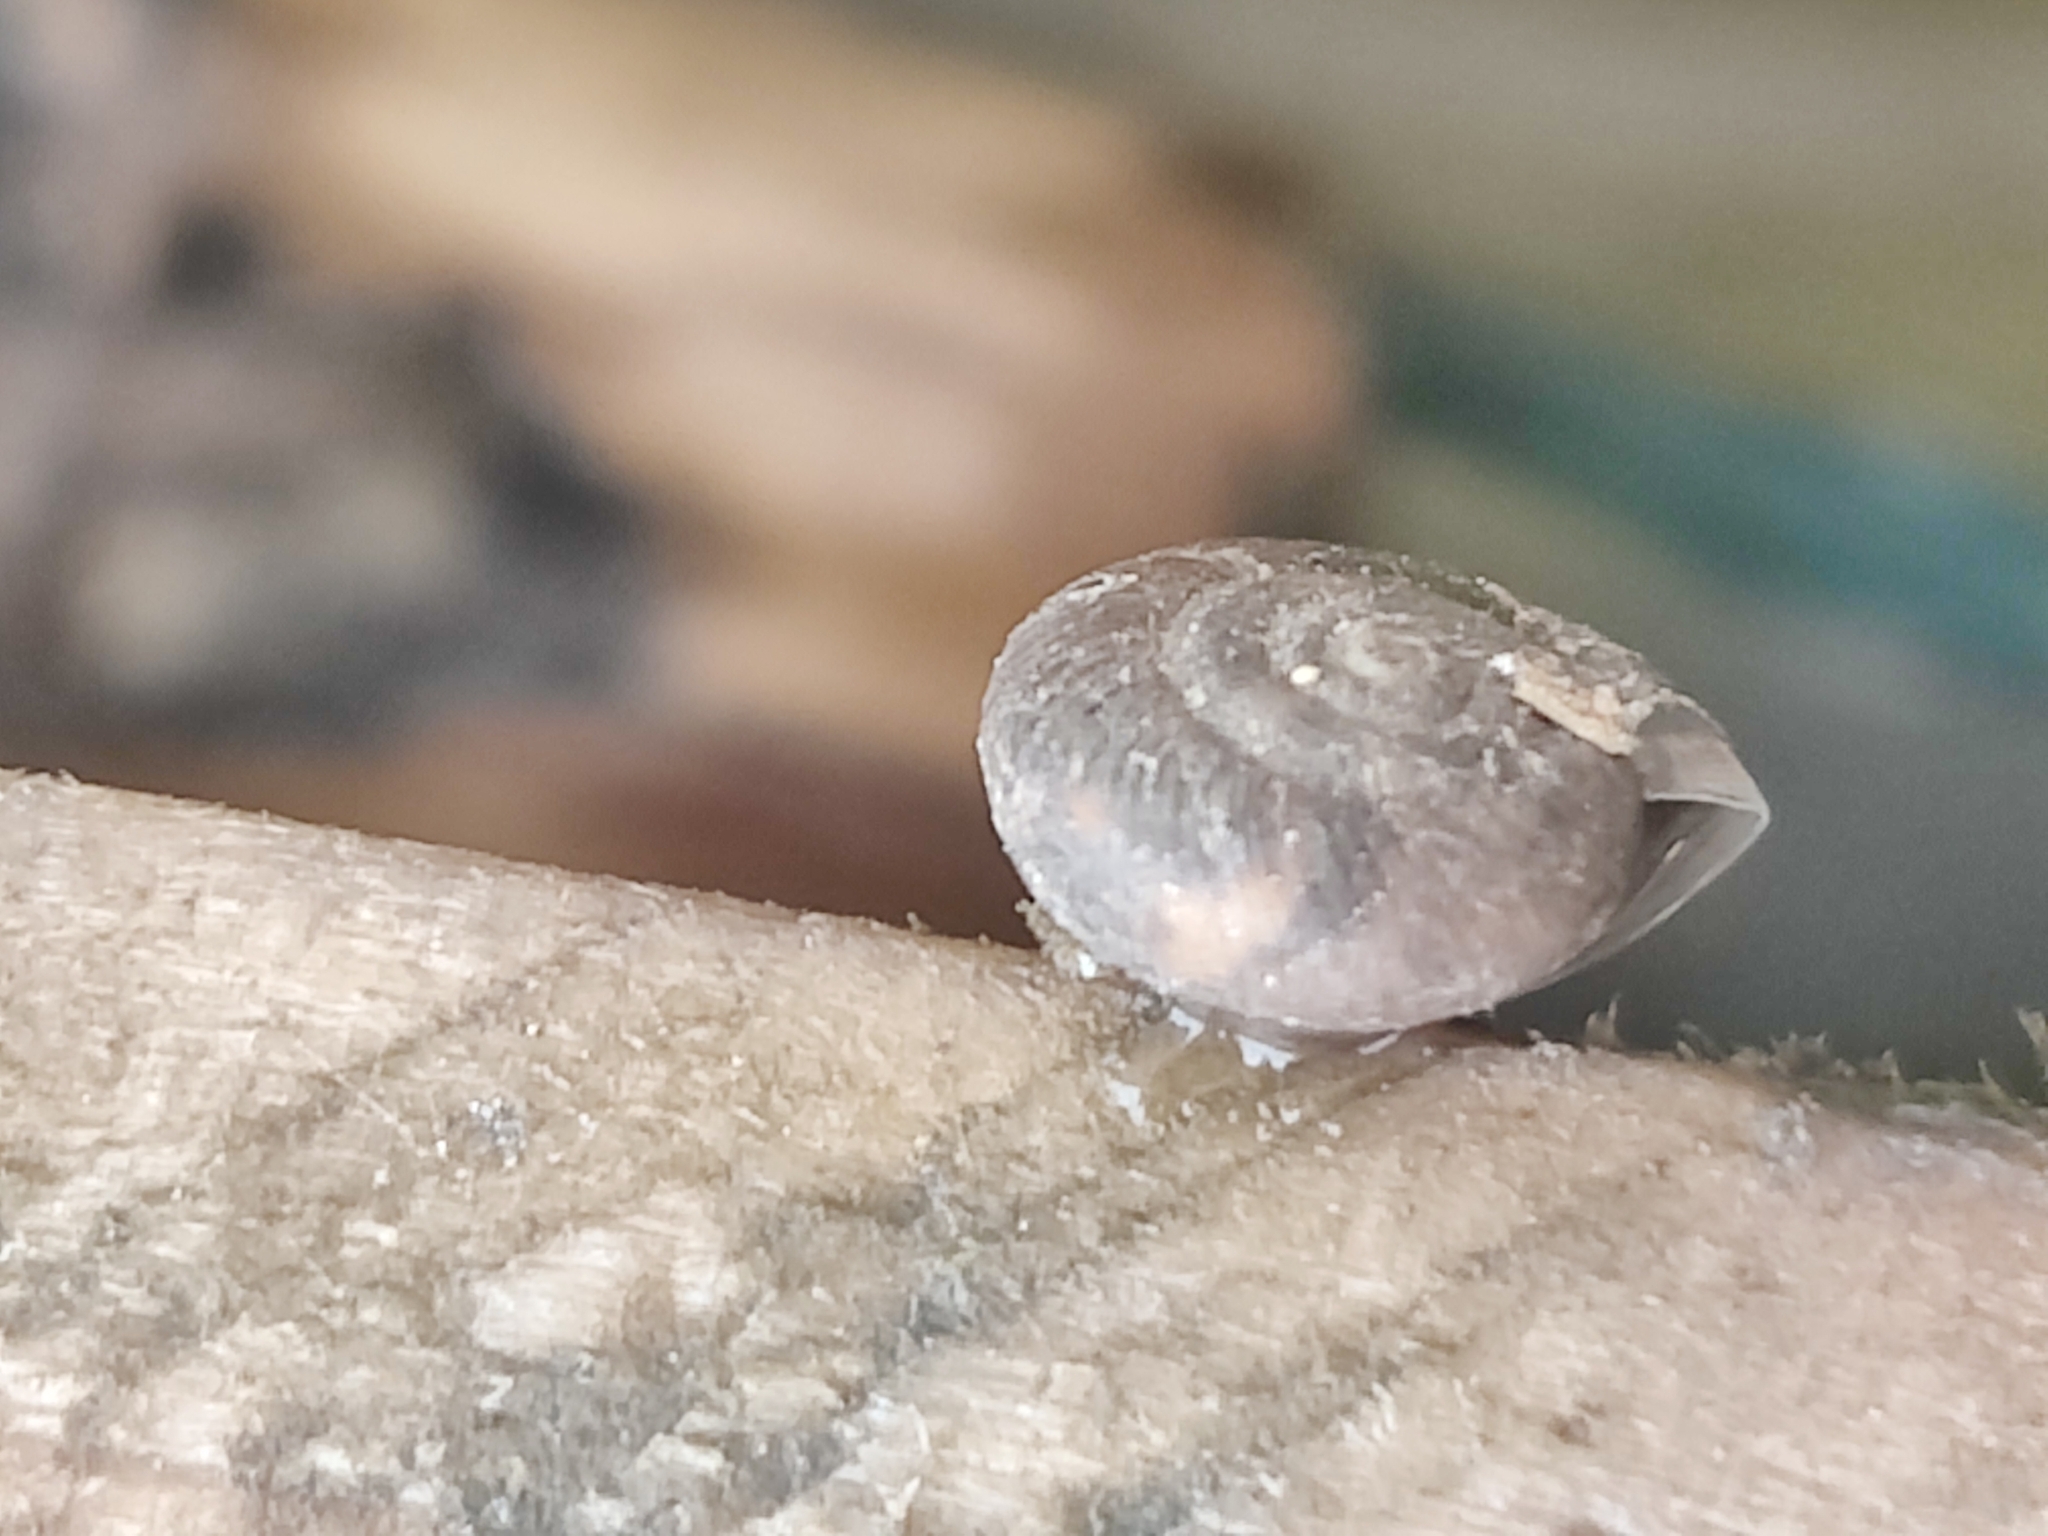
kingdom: Animalia
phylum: Mollusca
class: Gastropoda
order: Stylommatophora
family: Hygromiidae
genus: Trochulus
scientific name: Trochulus striolatus
